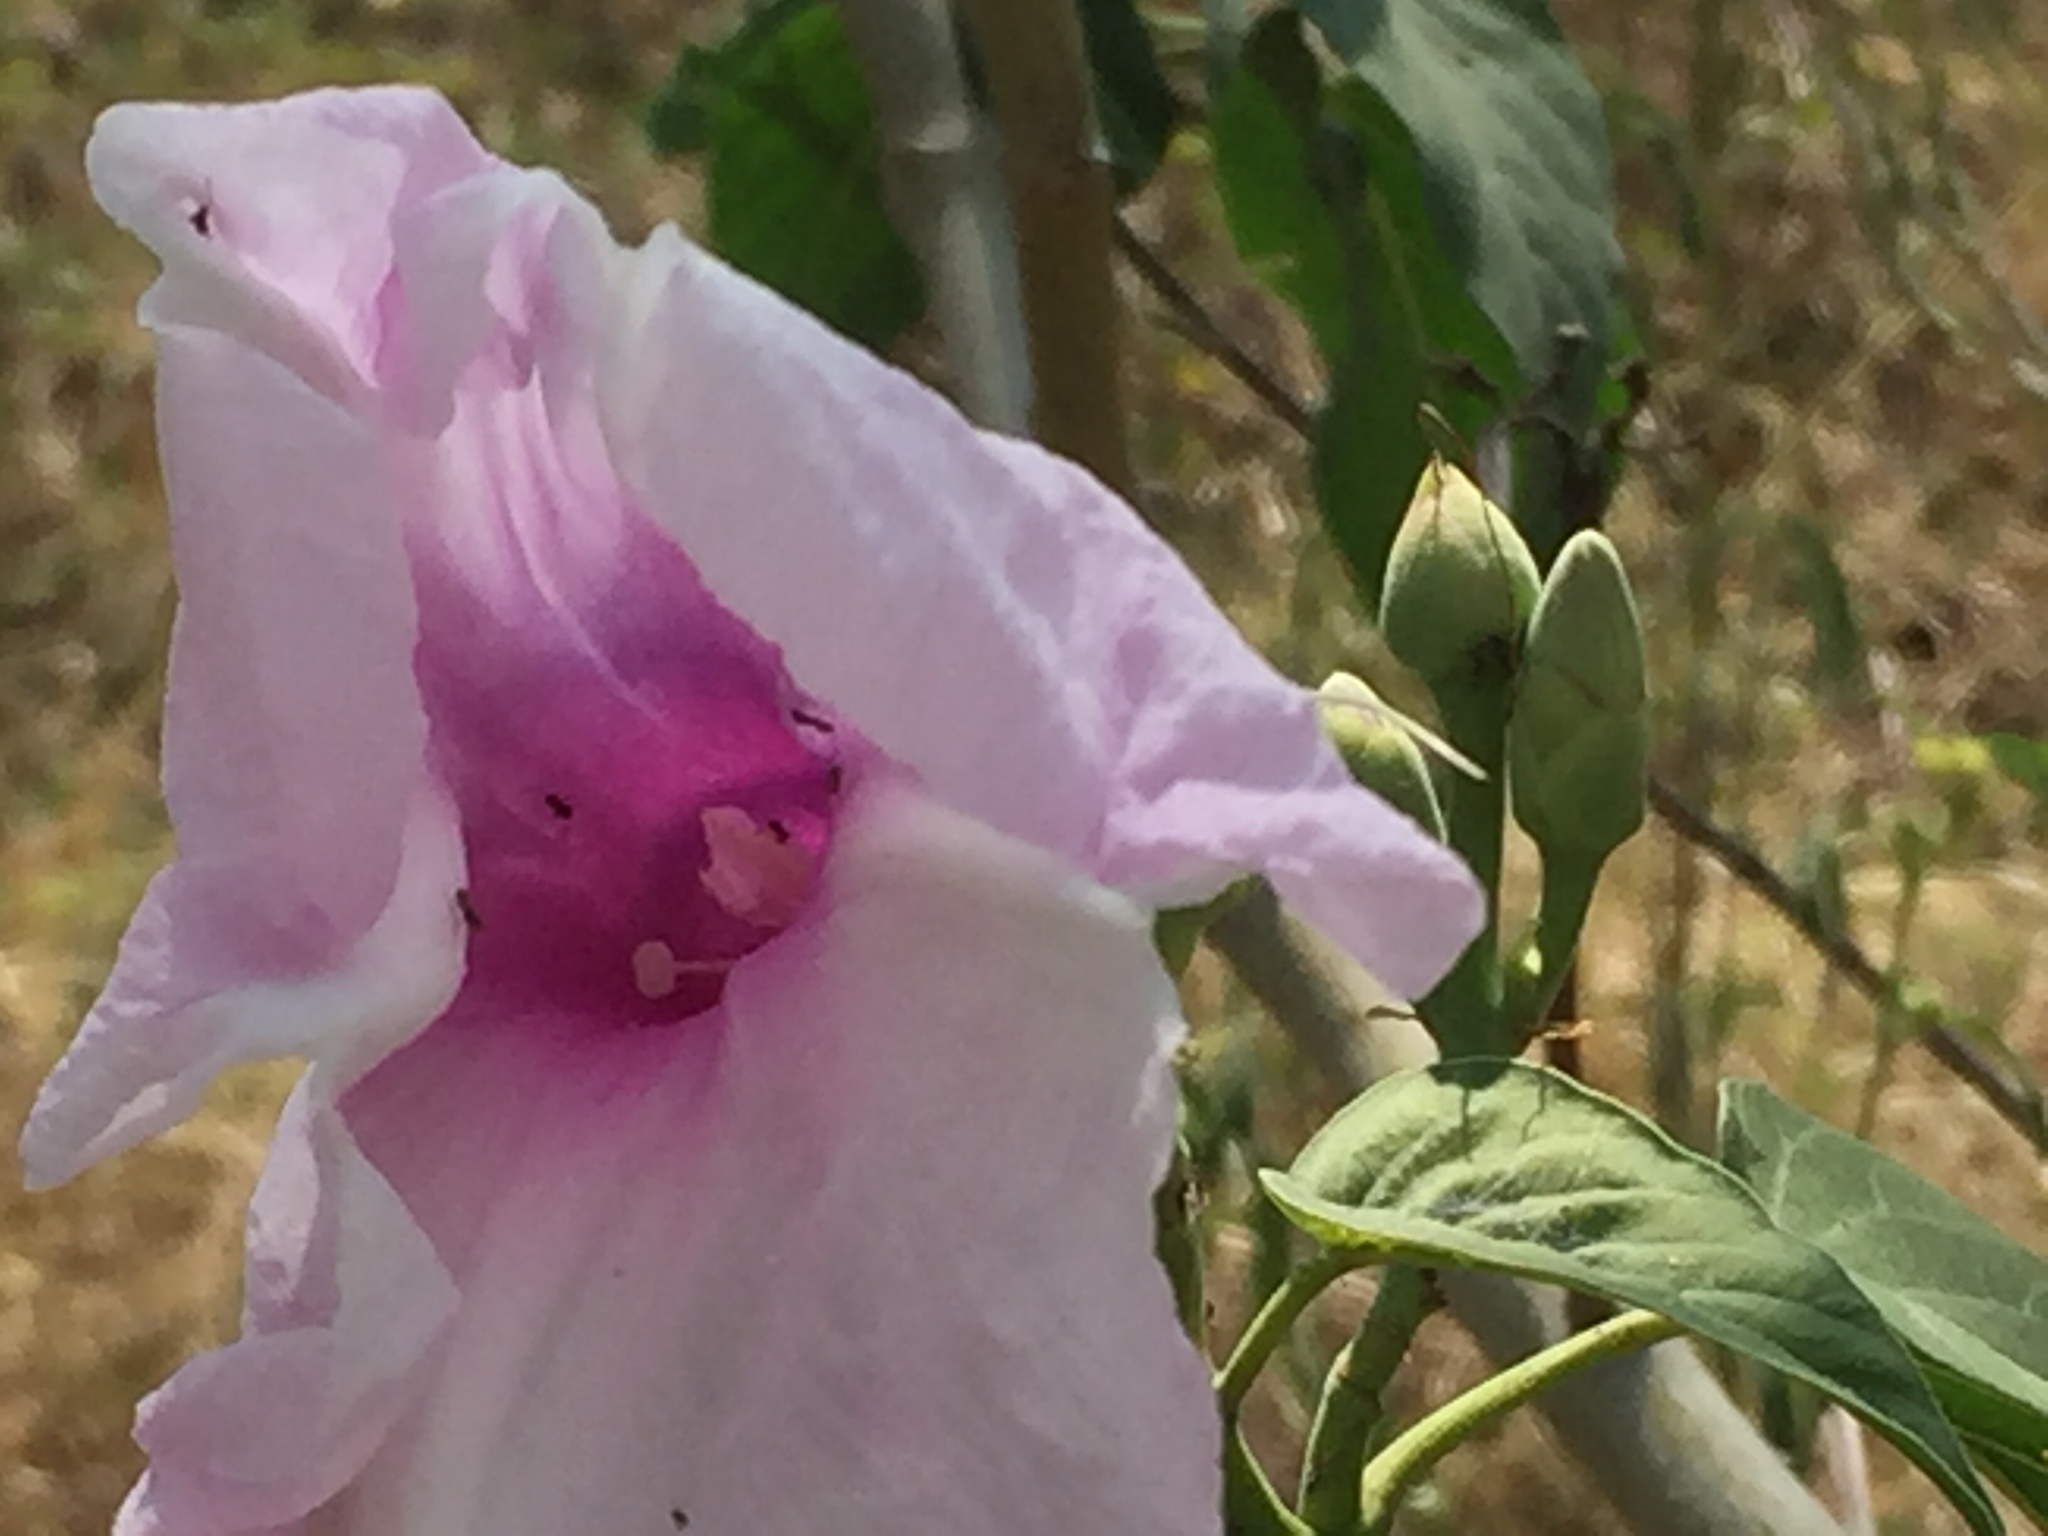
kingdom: Plantae
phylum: Tracheophyta
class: Magnoliopsida
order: Solanales
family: Convolvulaceae
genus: Ipomoea
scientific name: Ipomoea carnea
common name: Morning-glory
